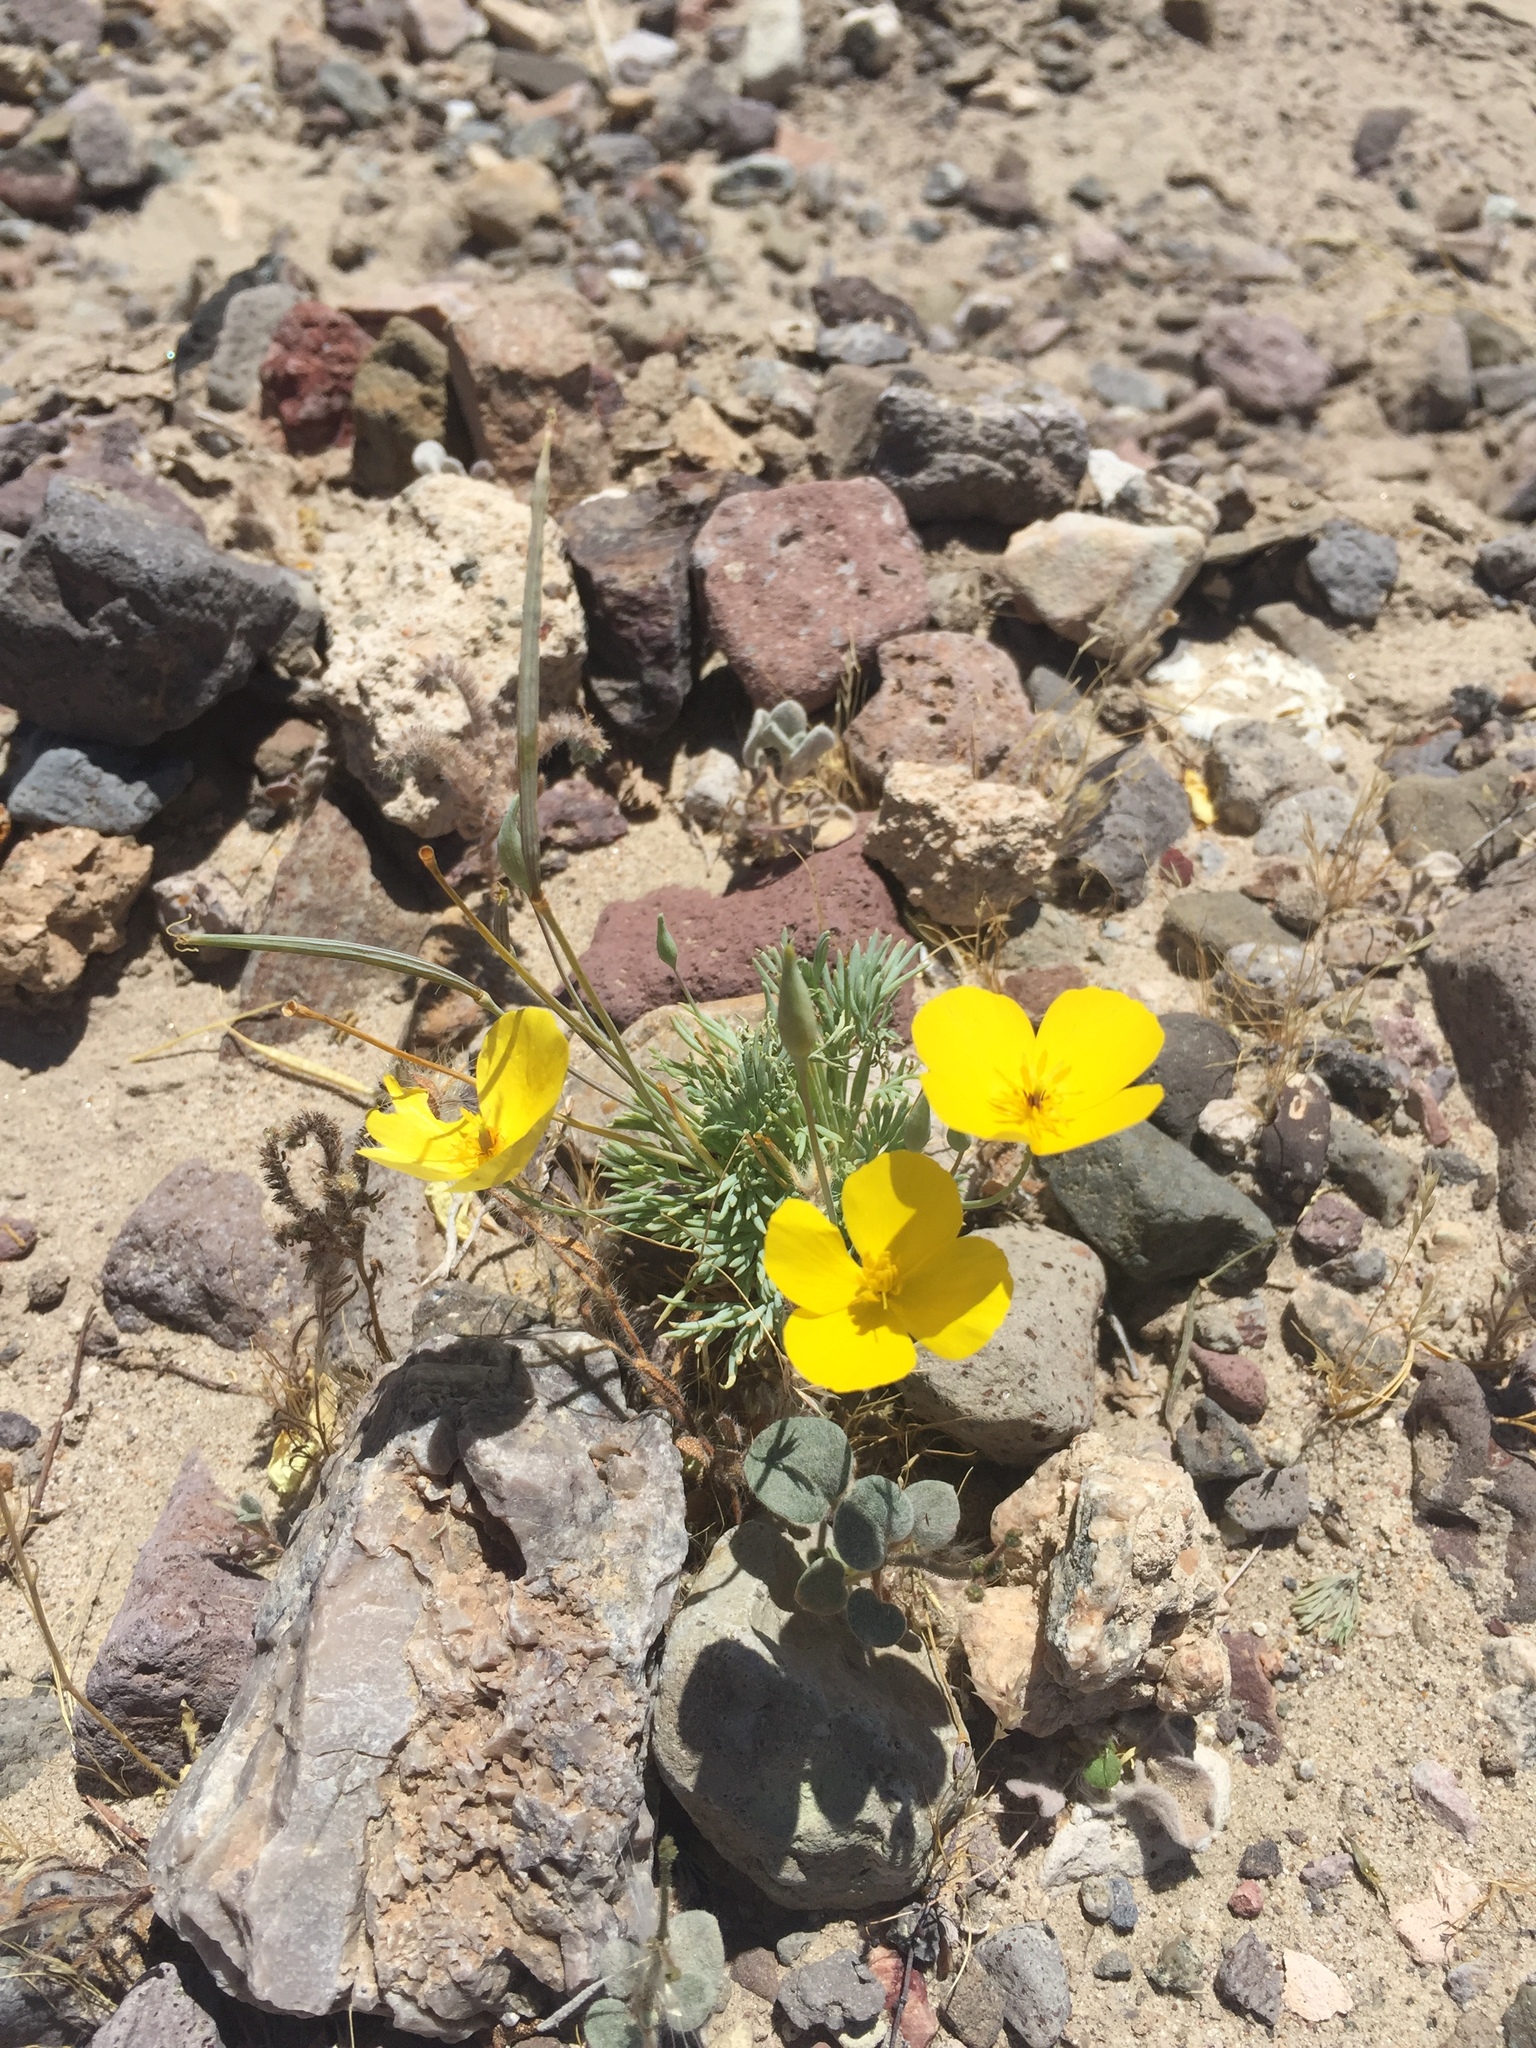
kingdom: Plantae
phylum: Tracheophyta
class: Magnoliopsida
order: Ranunculales
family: Papaveraceae
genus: Eschscholzia
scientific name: Eschscholzia glyptosperma
